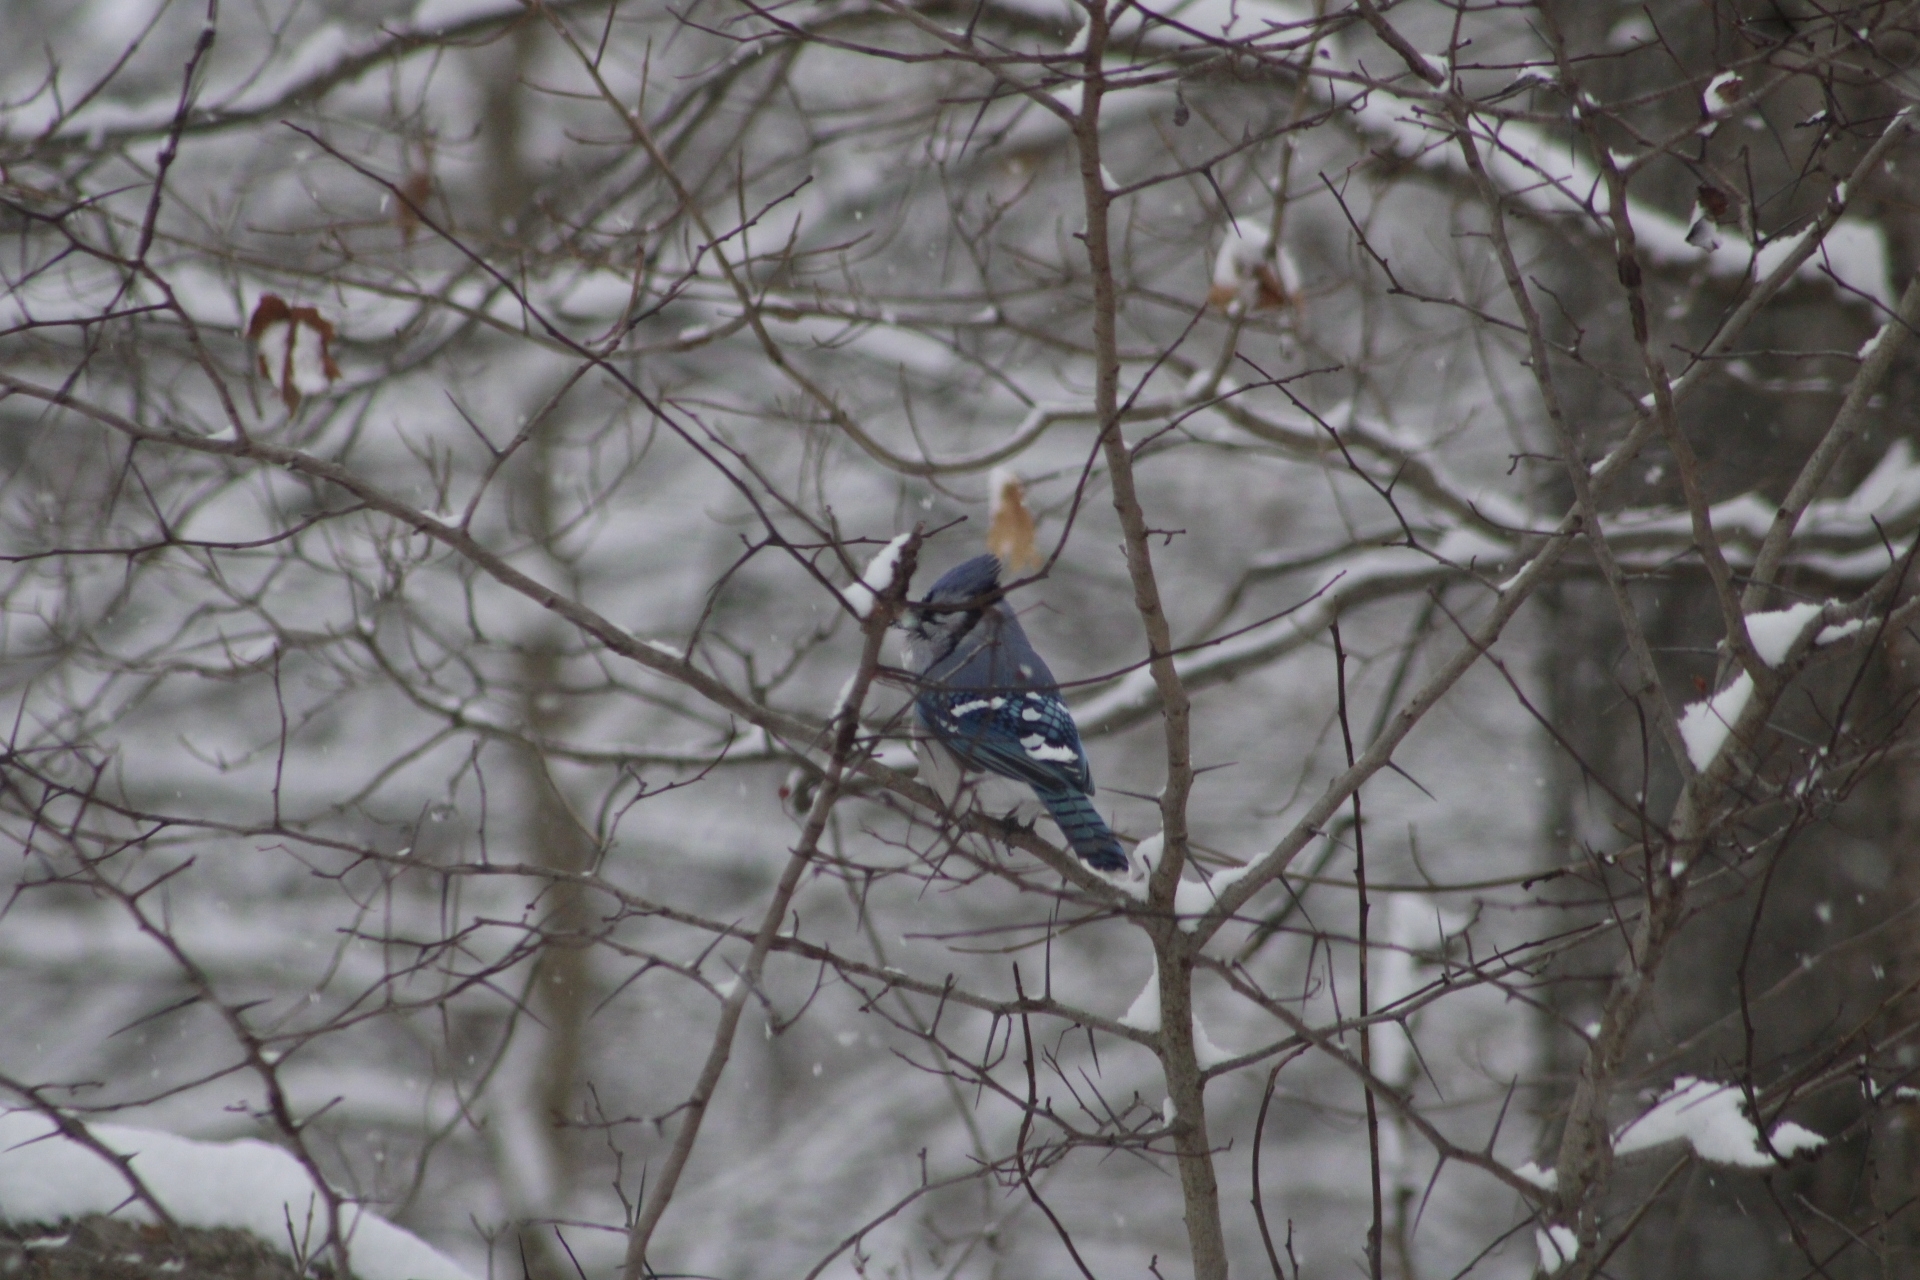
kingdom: Animalia
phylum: Chordata
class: Aves
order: Passeriformes
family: Corvidae
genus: Cyanocitta
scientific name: Cyanocitta cristata
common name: Blue jay
